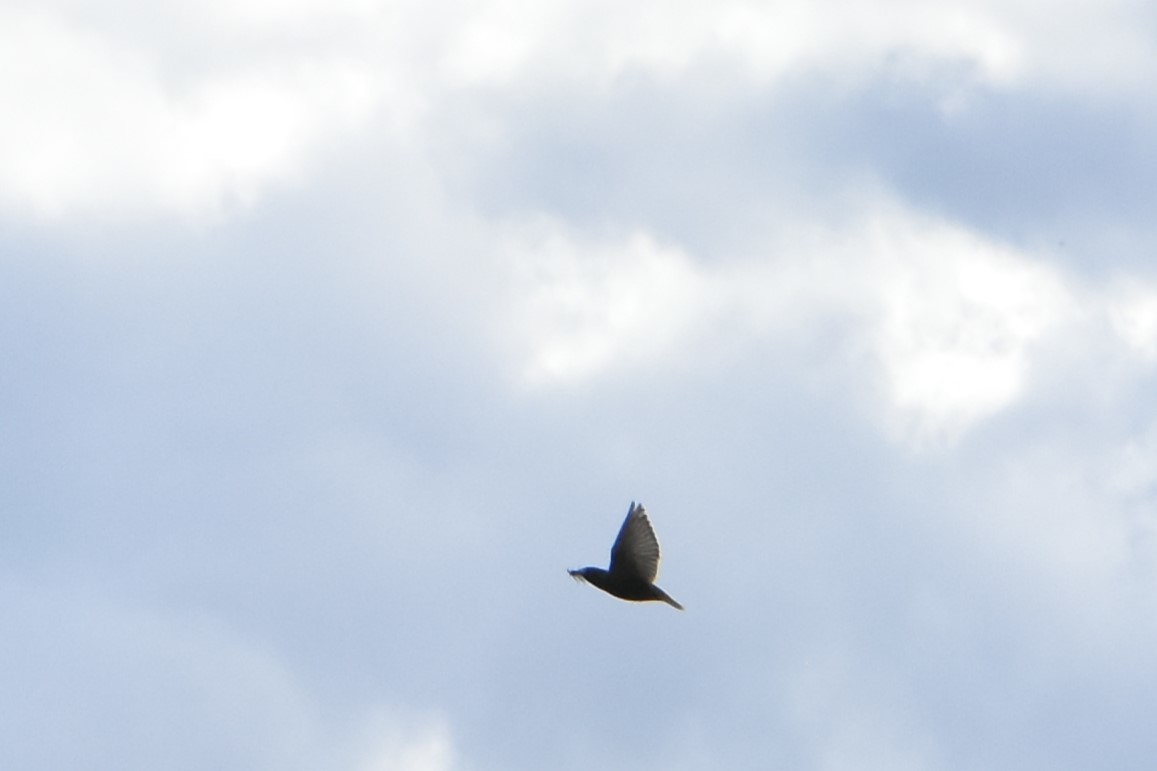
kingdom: Animalia
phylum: Chordata
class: Aves
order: Passeriformes
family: Sturnidae
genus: Sturnus
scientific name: Sturnus vulgaris
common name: Common starling
